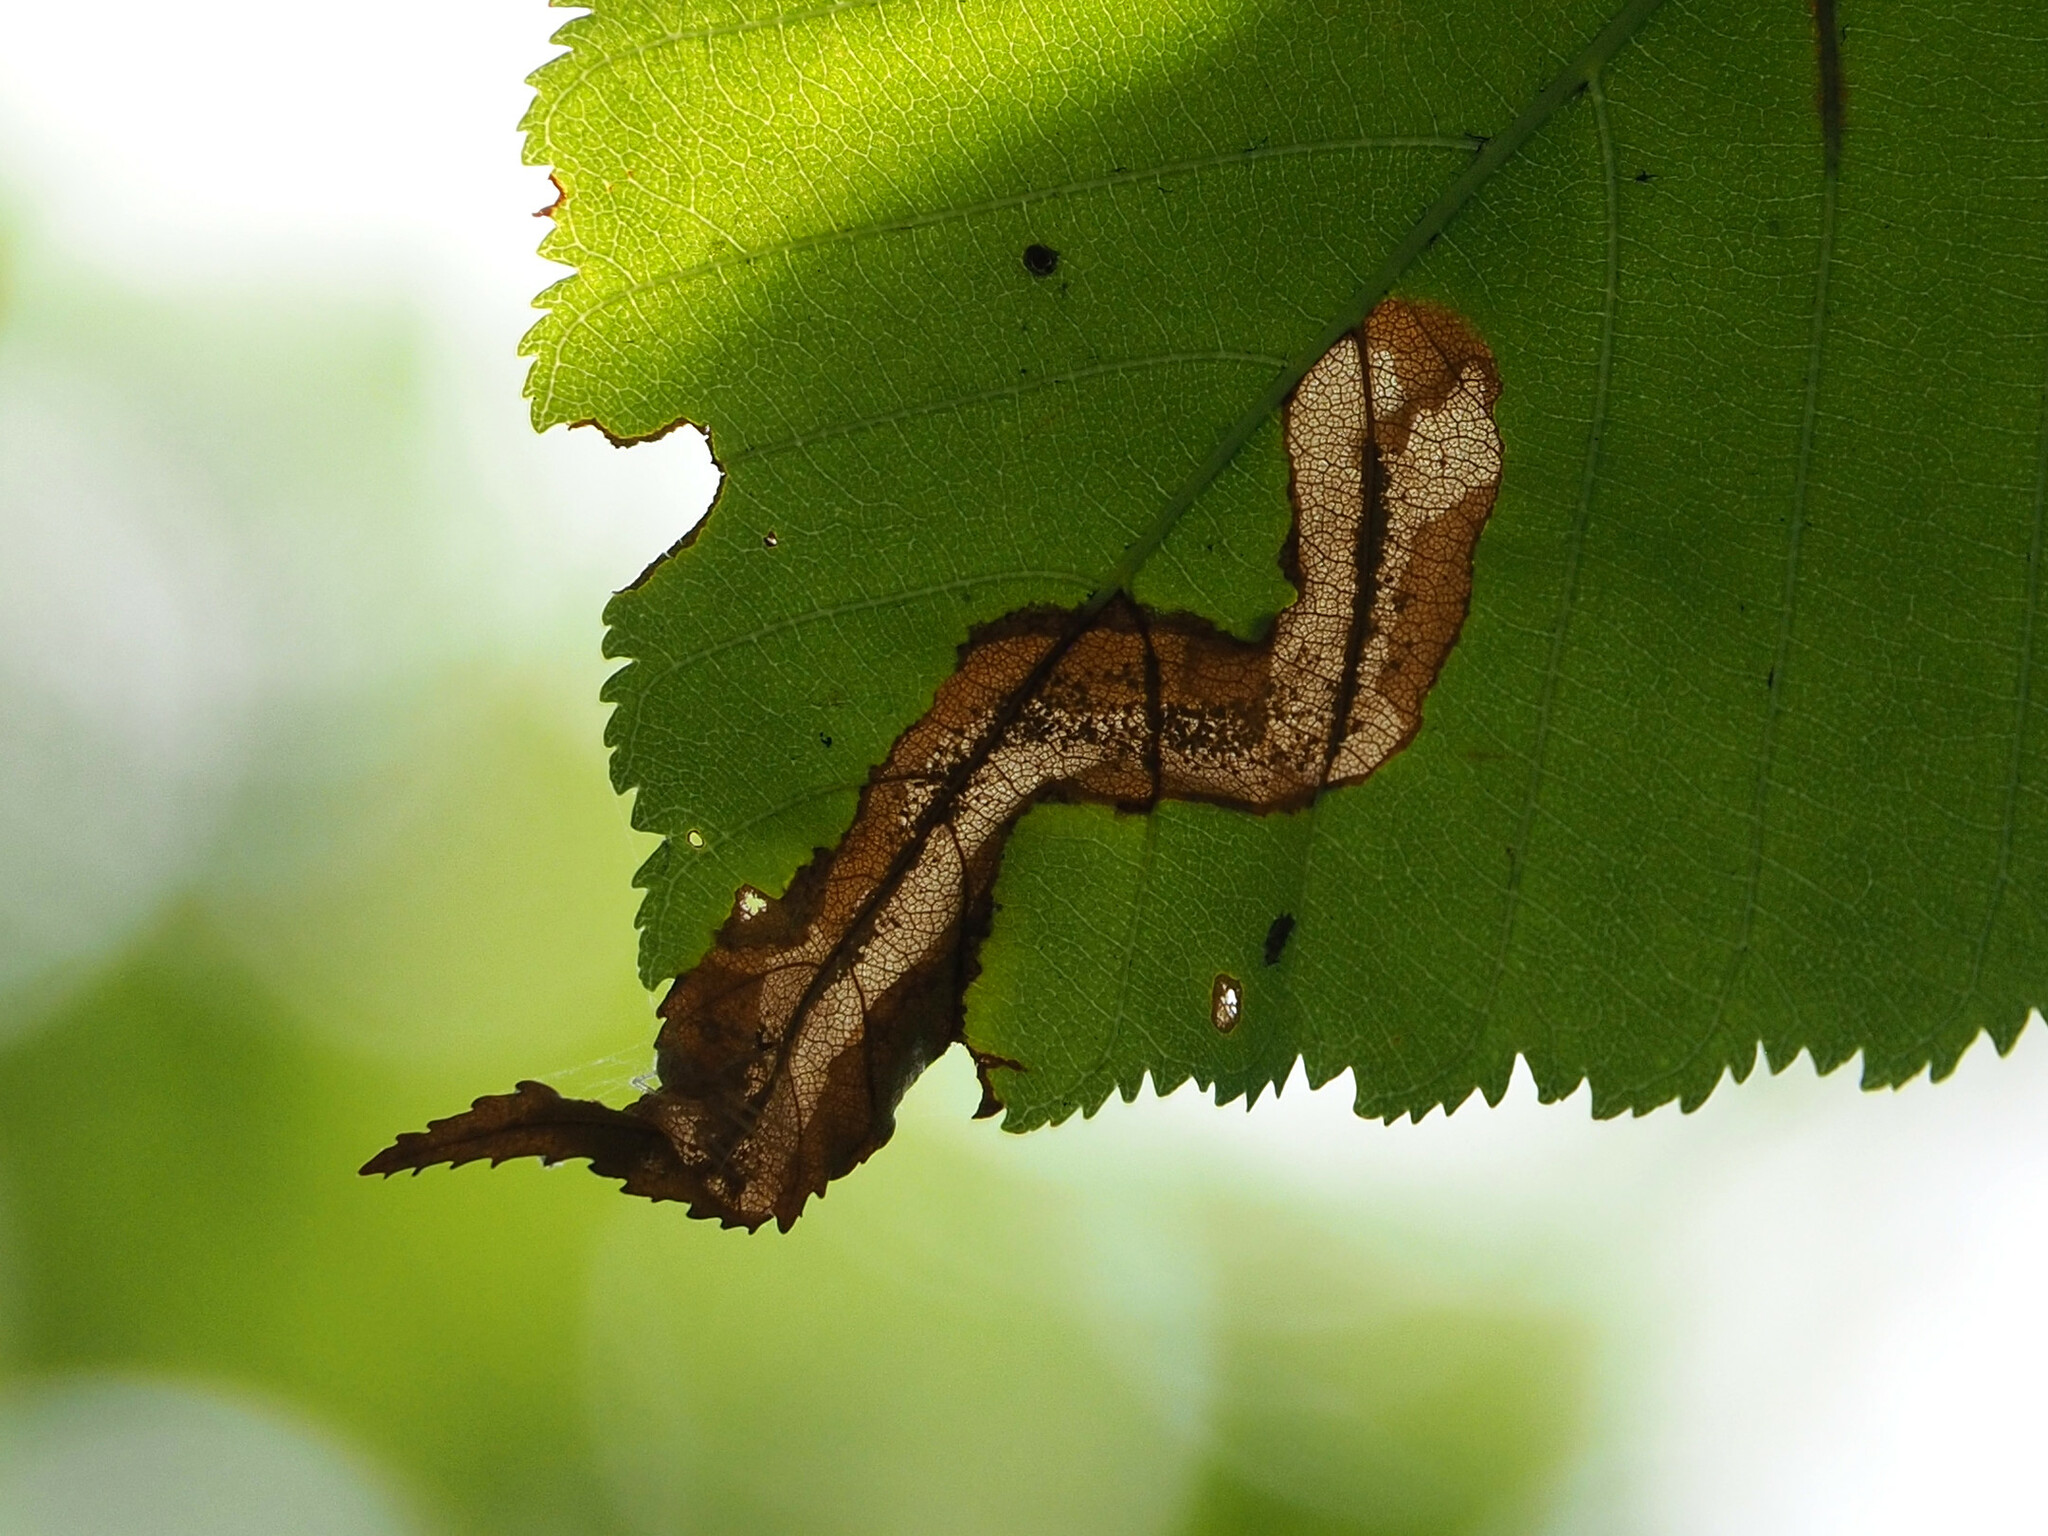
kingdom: Animalia
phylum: Arthropoda
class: Insecta
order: Lepidoptera
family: Gracillariidae
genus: Cameraria
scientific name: Cameraria aesculisella
